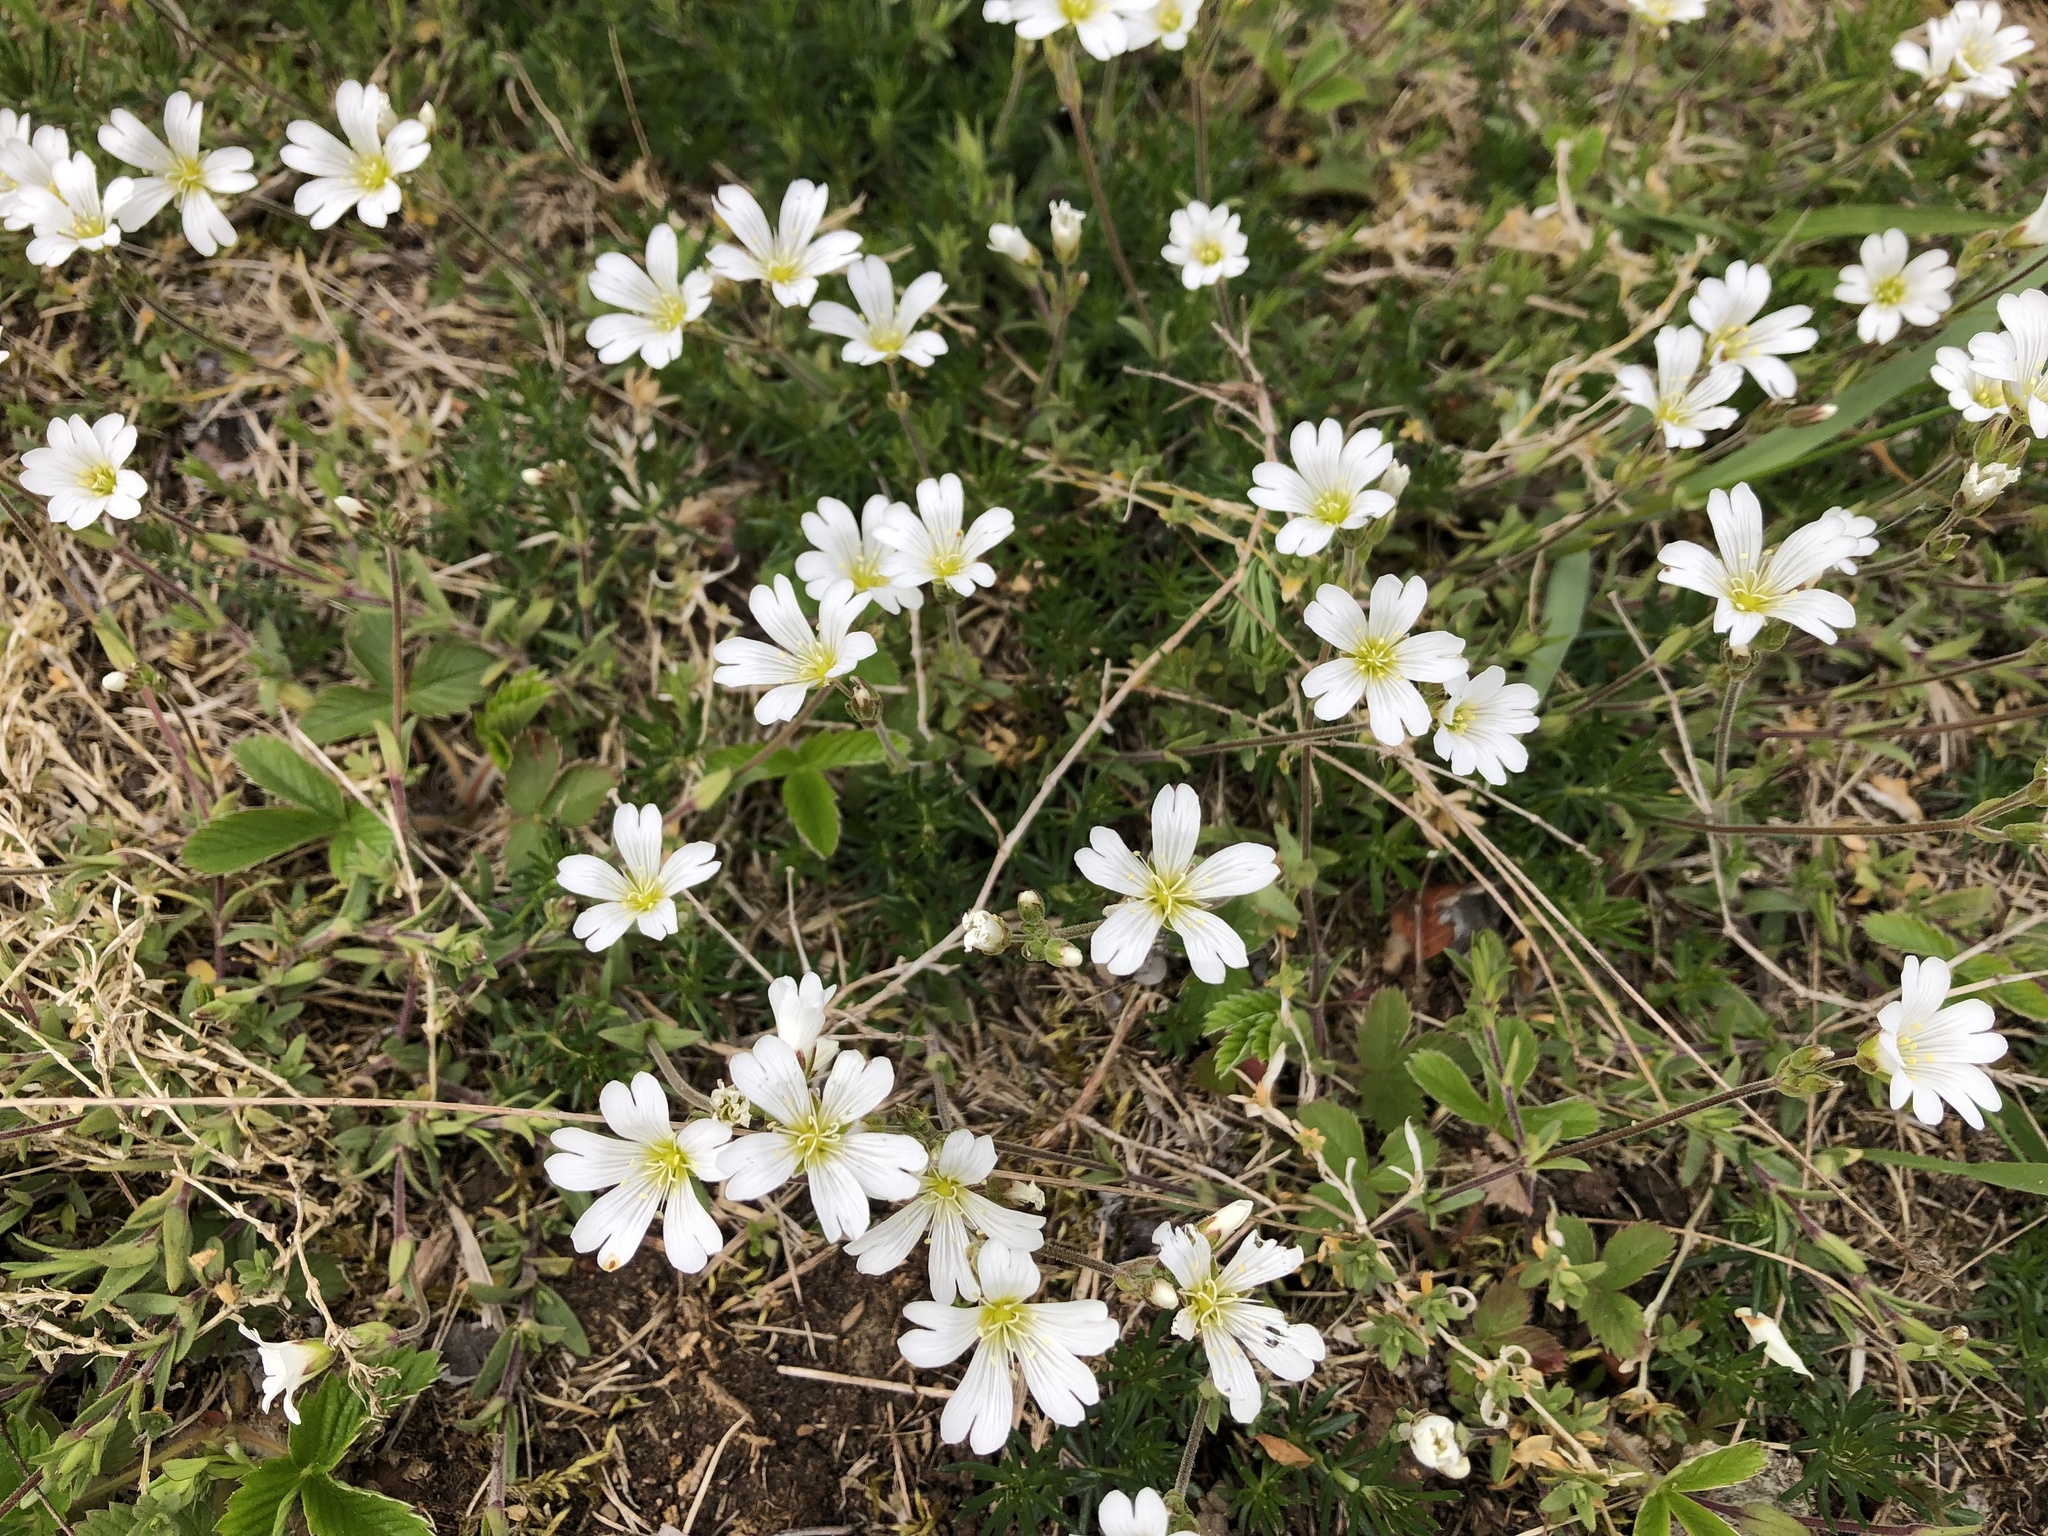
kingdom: Plantae
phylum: Tracheophyta
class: Magnoliopsida
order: Caryophyllales
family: Caryophyllaceae
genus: Cerastium
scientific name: Cerastium arvense
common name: Field mouse-ear
